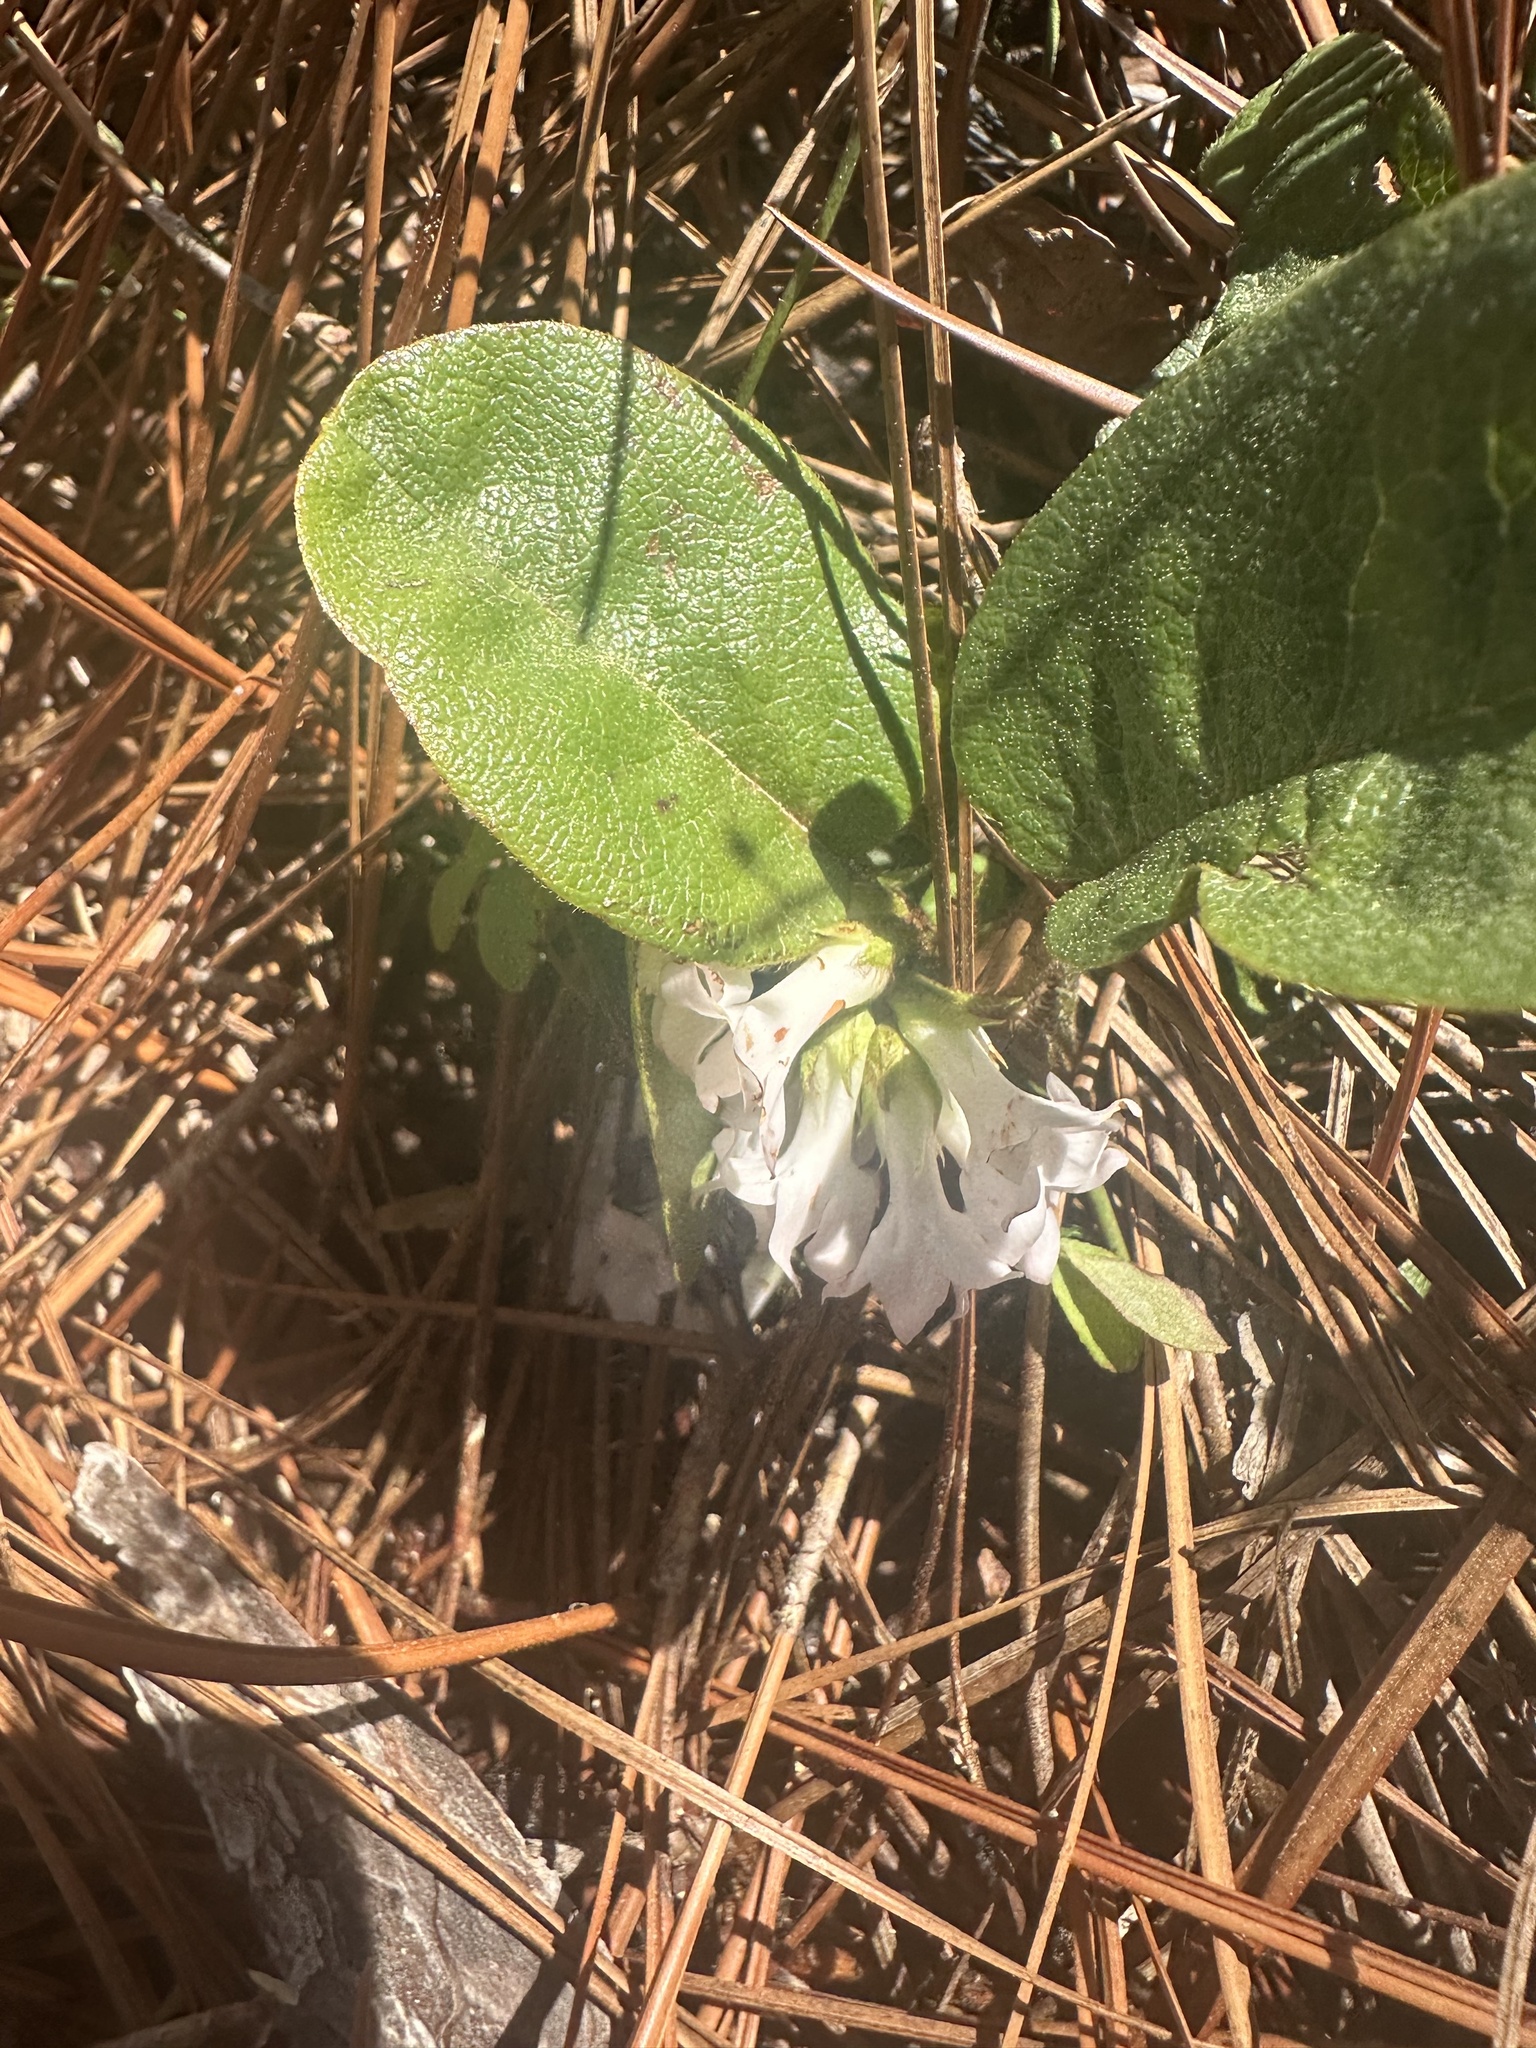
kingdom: Plantae
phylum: Tracheophyta
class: Magnoliopsida
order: Ericales
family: Ericaceae
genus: Epigaea
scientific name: Epigaea repens
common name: Gravelroot
